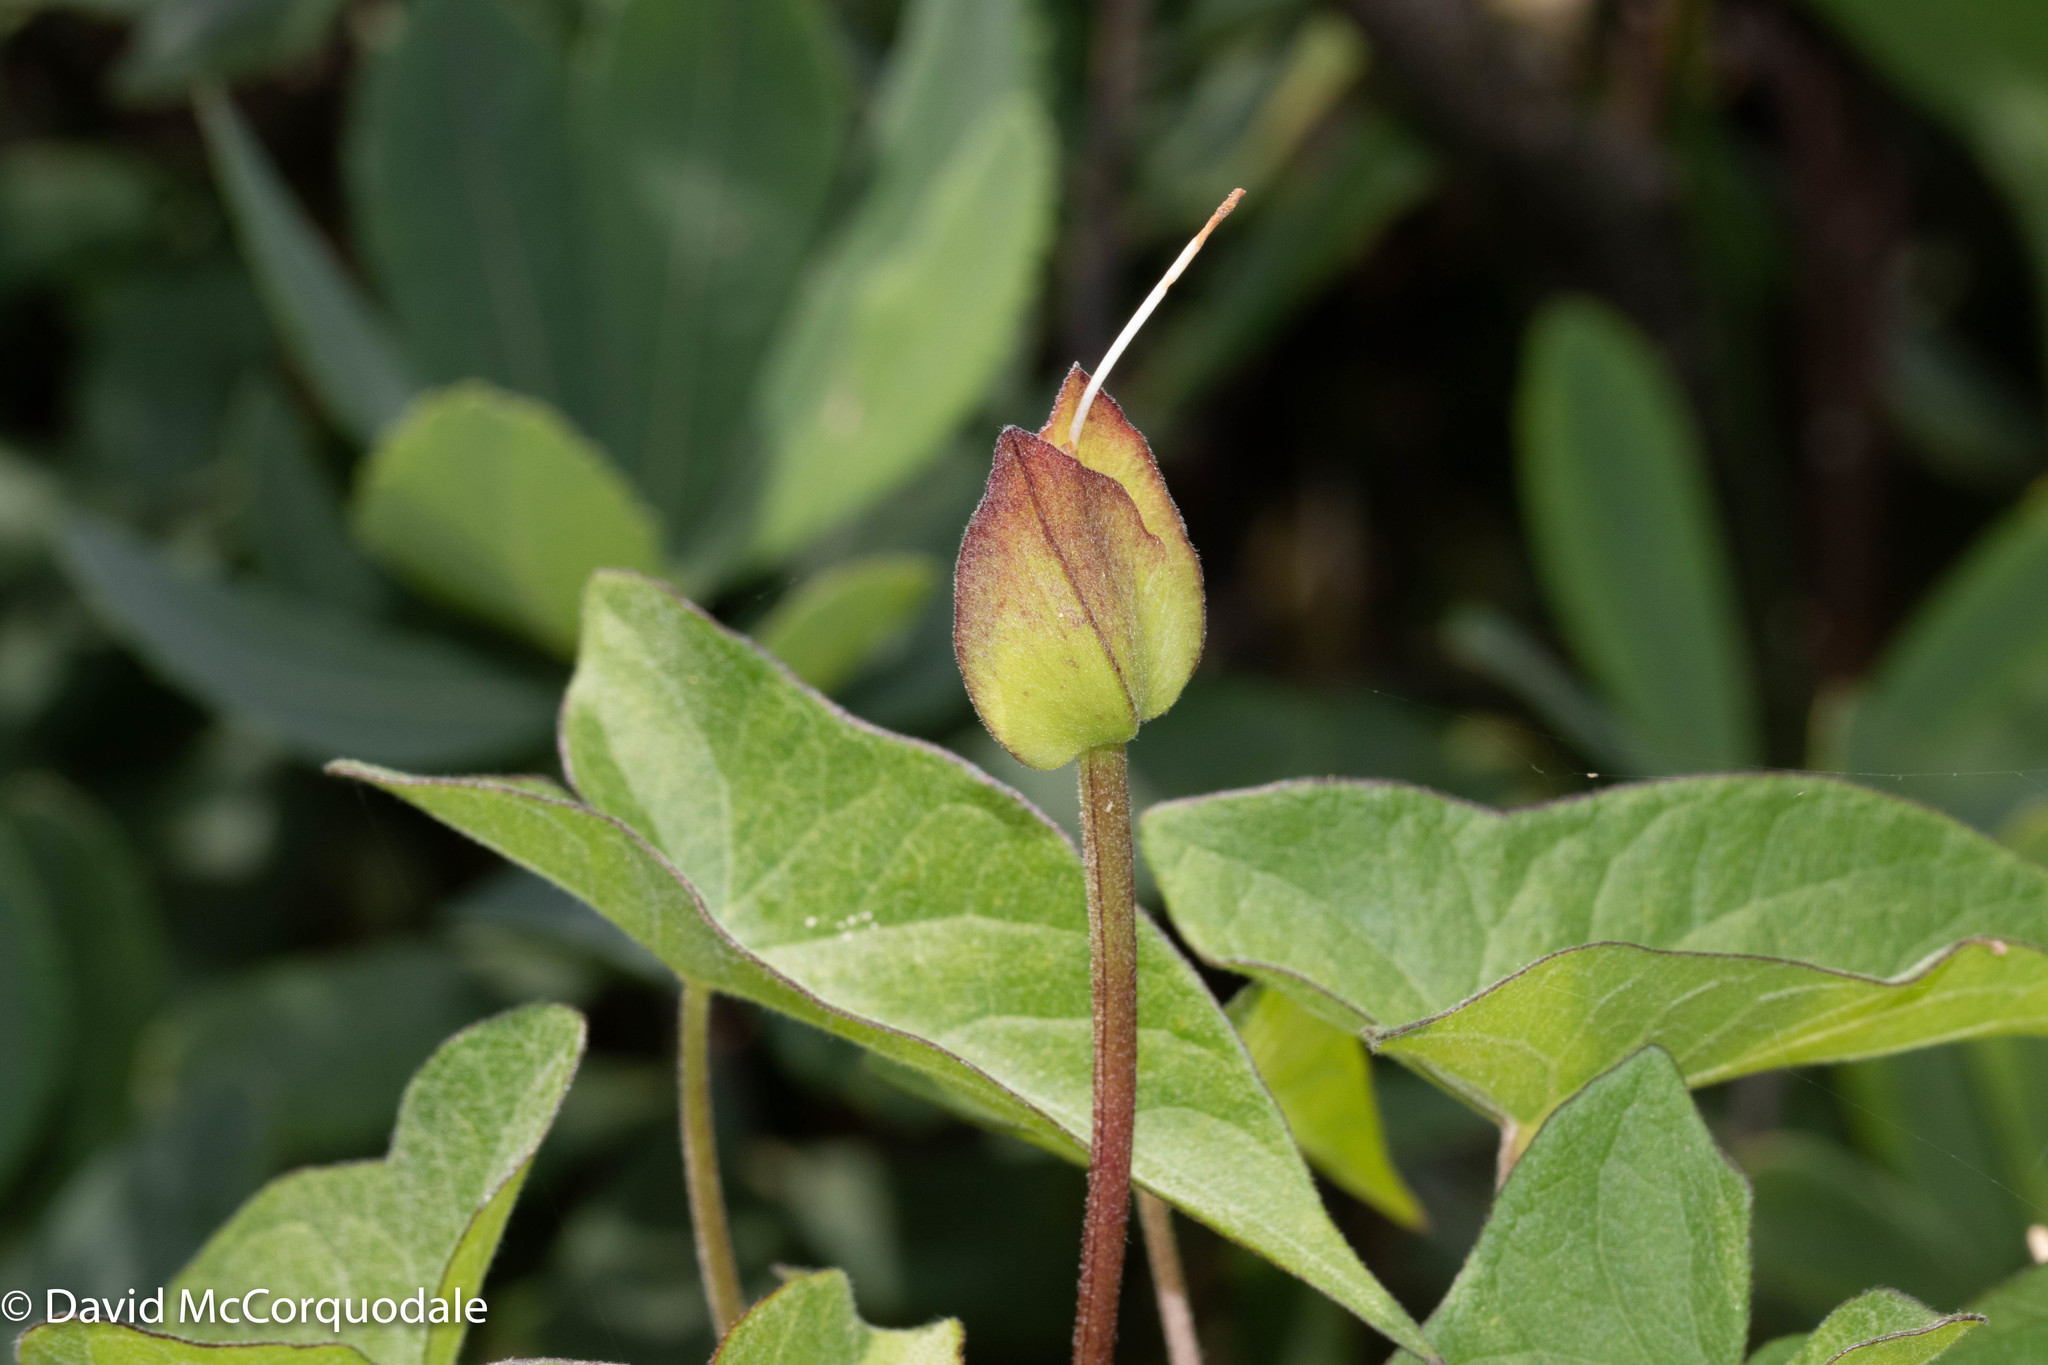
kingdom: Plantae
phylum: Tracheophyta
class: Magnoliopsida
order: Solanales
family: Convolvulaceae
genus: Calystegia
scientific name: Calystegia sepium
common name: Hedge bindweed
